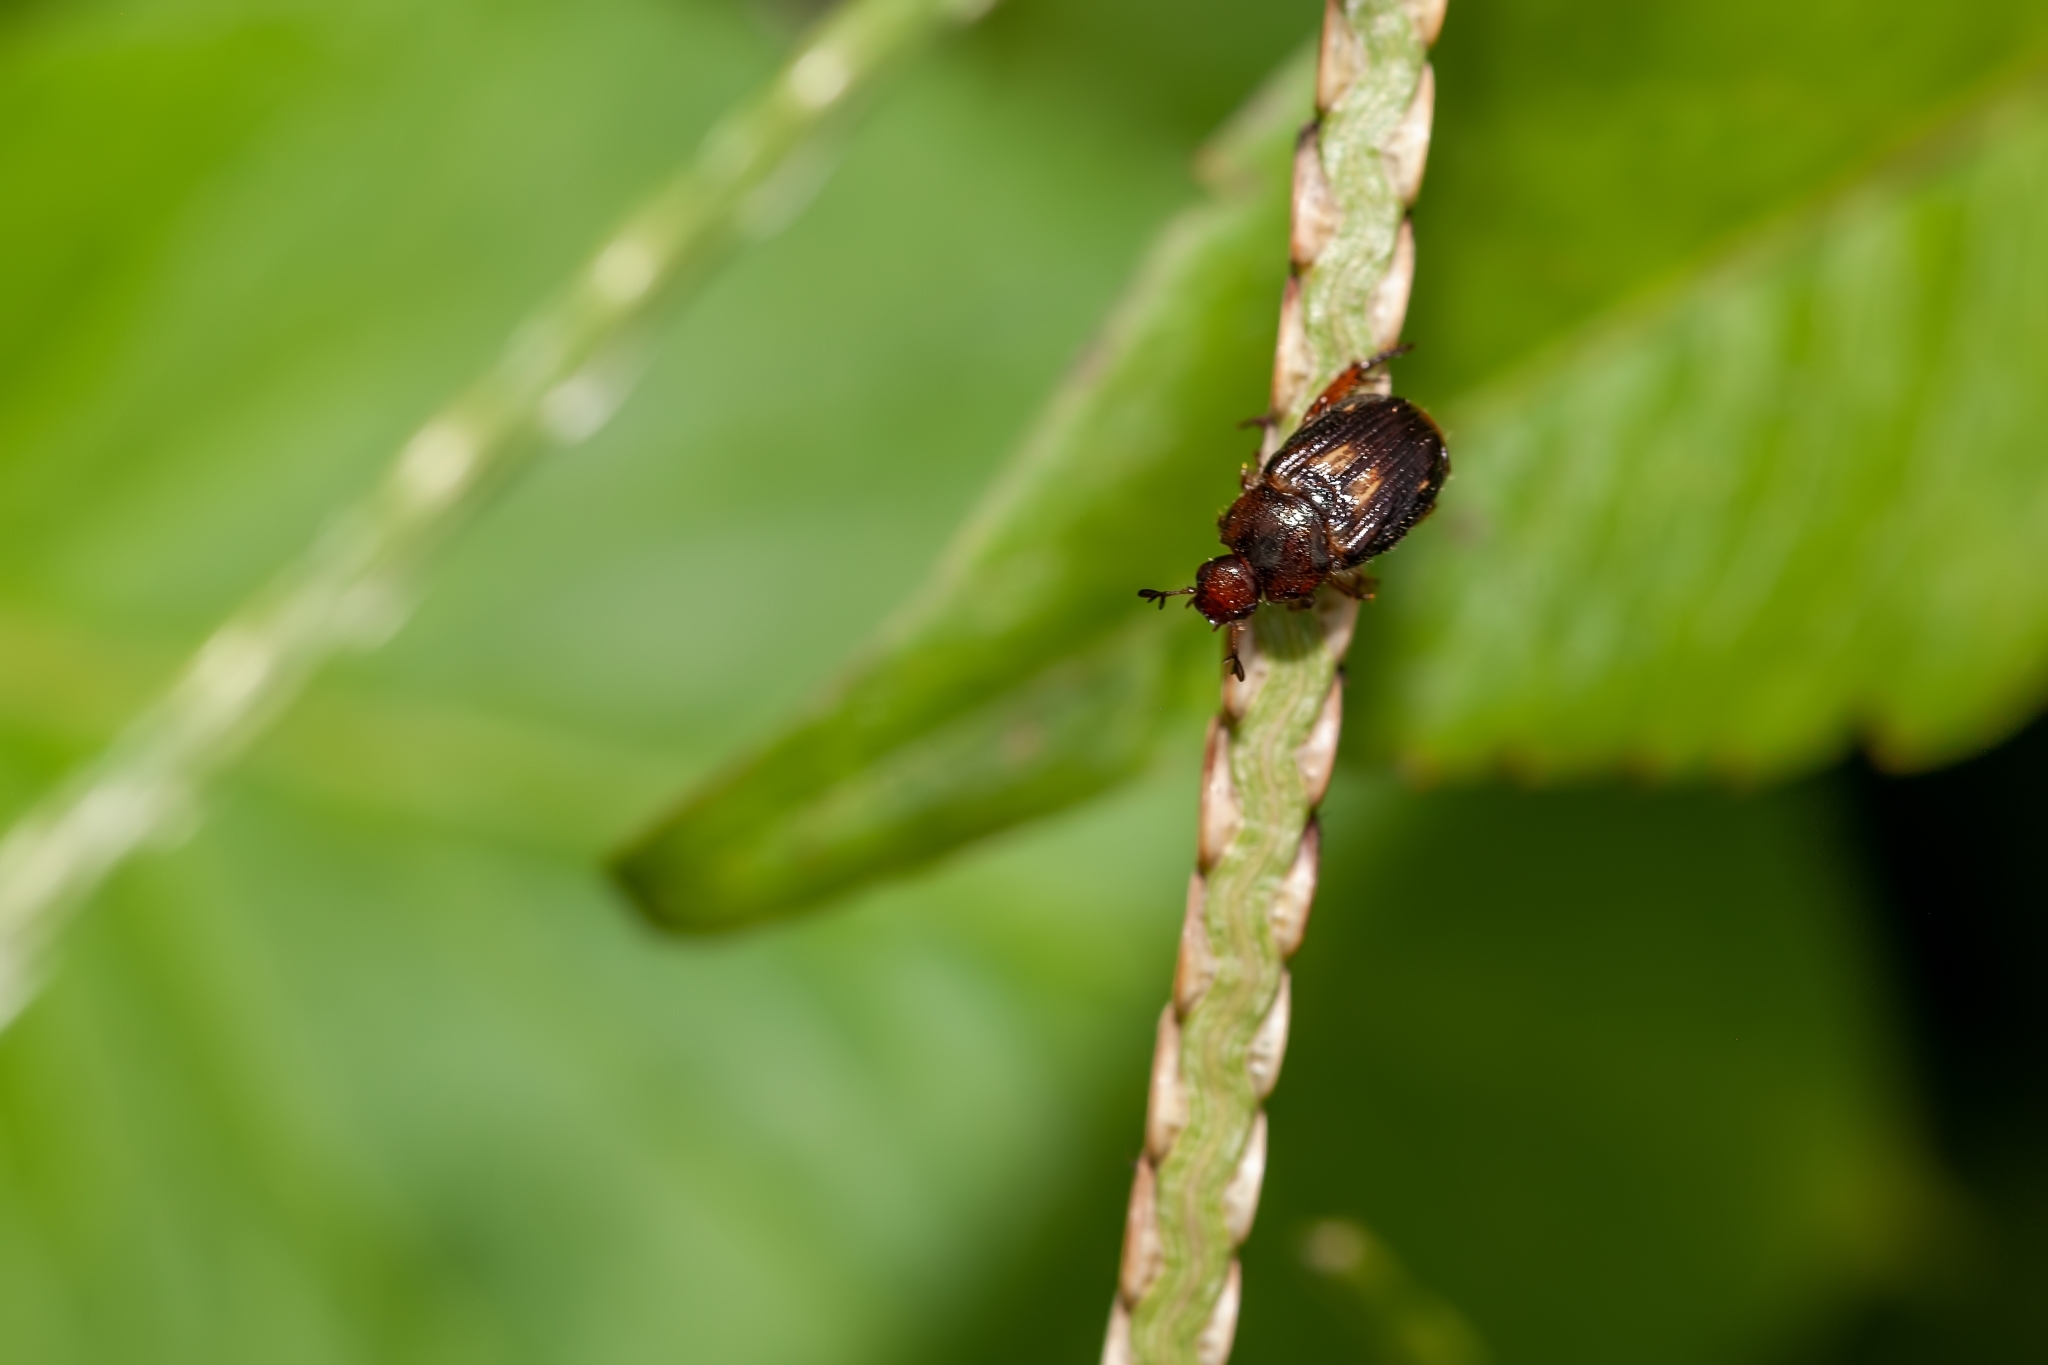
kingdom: Animalia
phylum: Arthropoda
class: Insecta
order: Coleoptera
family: Scarabaeidae
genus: Strigoderma
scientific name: Strigoderma pygmaea
